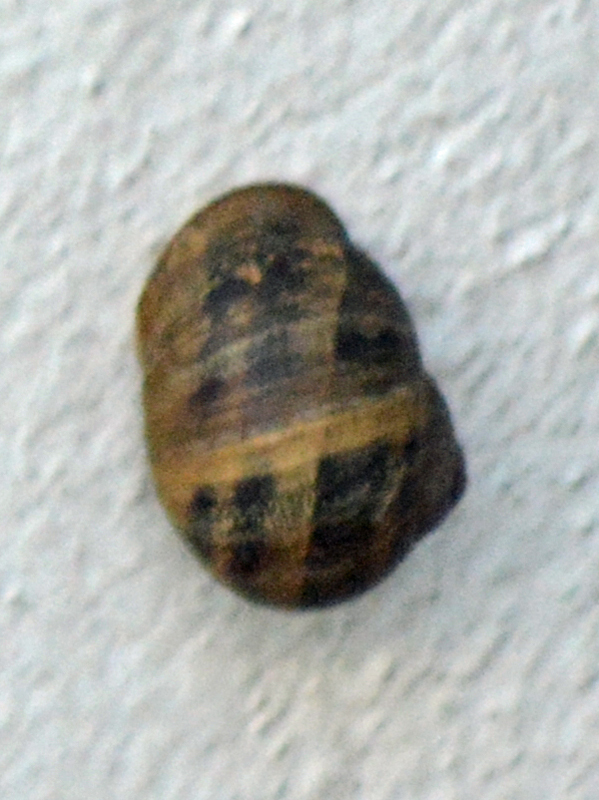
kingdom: Animalia
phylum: Mollusca
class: Gastropoda
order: Stylommatophora
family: Helicidae
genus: Cornu
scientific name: Cornu aspersum
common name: Brown garden snail
